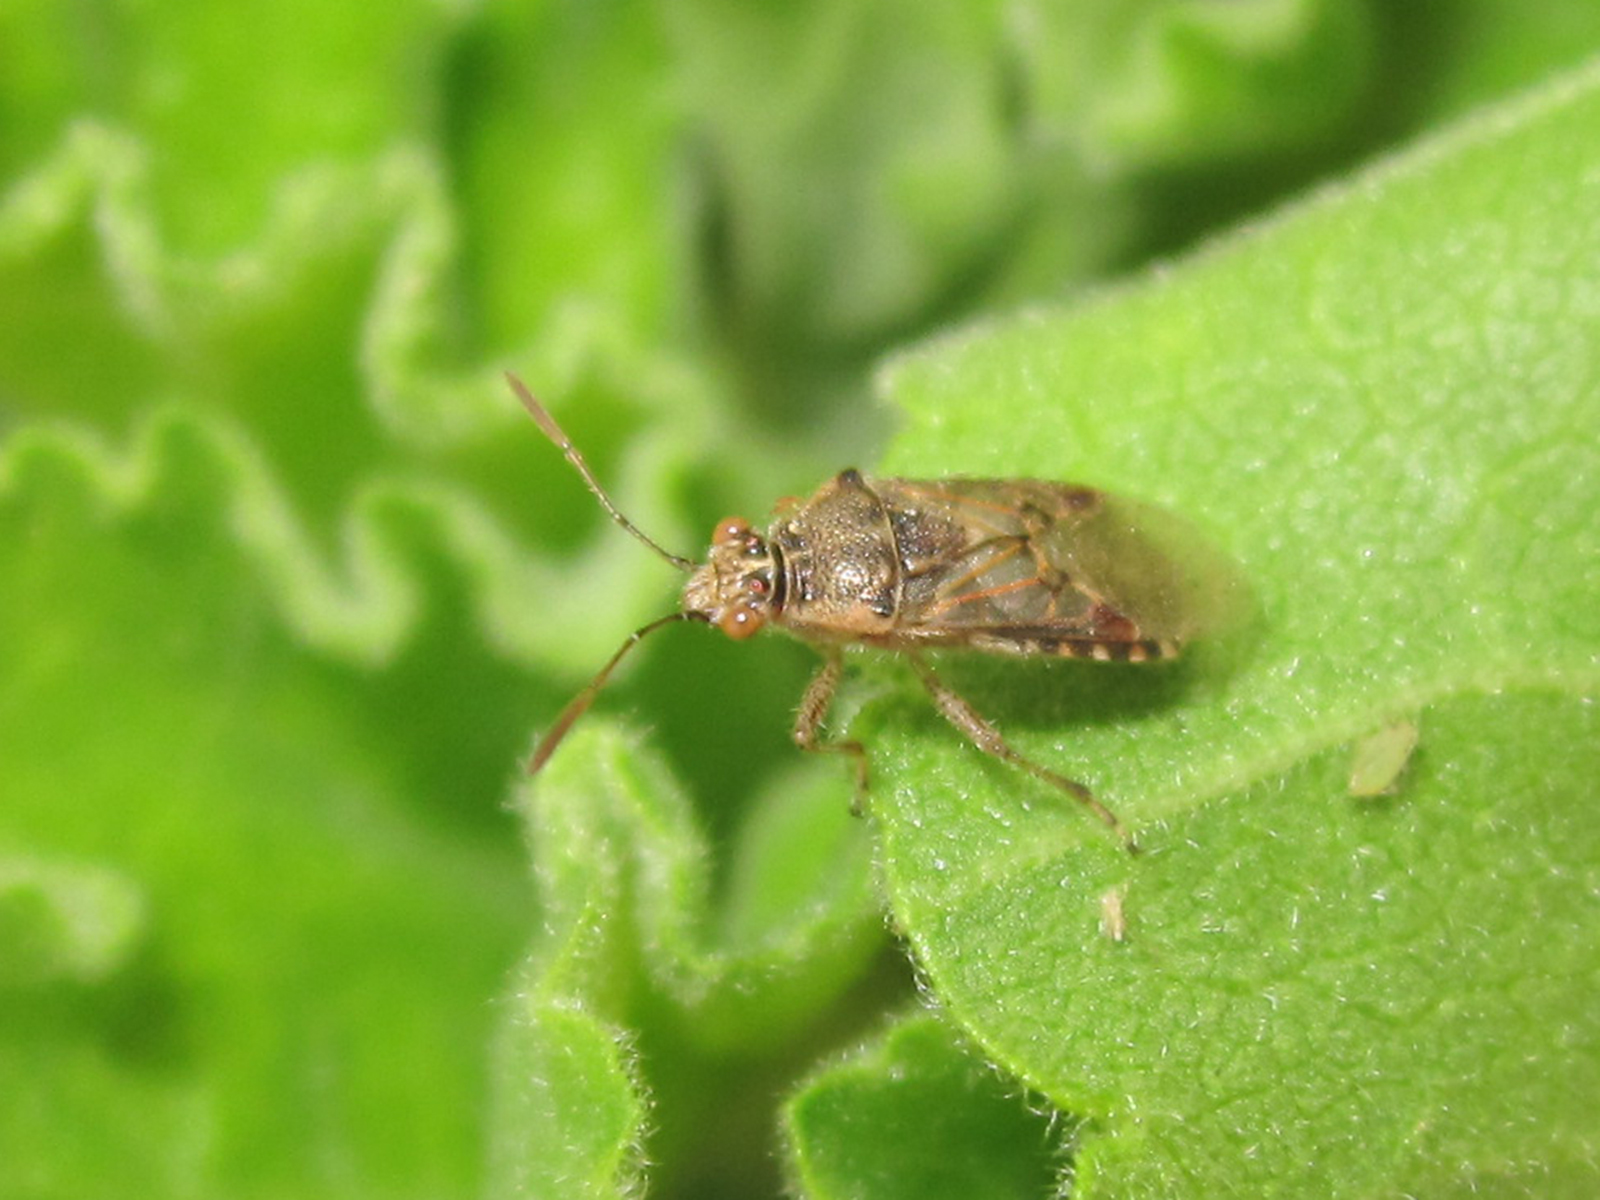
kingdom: Animalia
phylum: Arthropoda
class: Insecta
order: Hemiptera
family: Rhopalidae
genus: Liorhyssus
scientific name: Liorhyssus hyalinus
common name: Scentless plant bug
